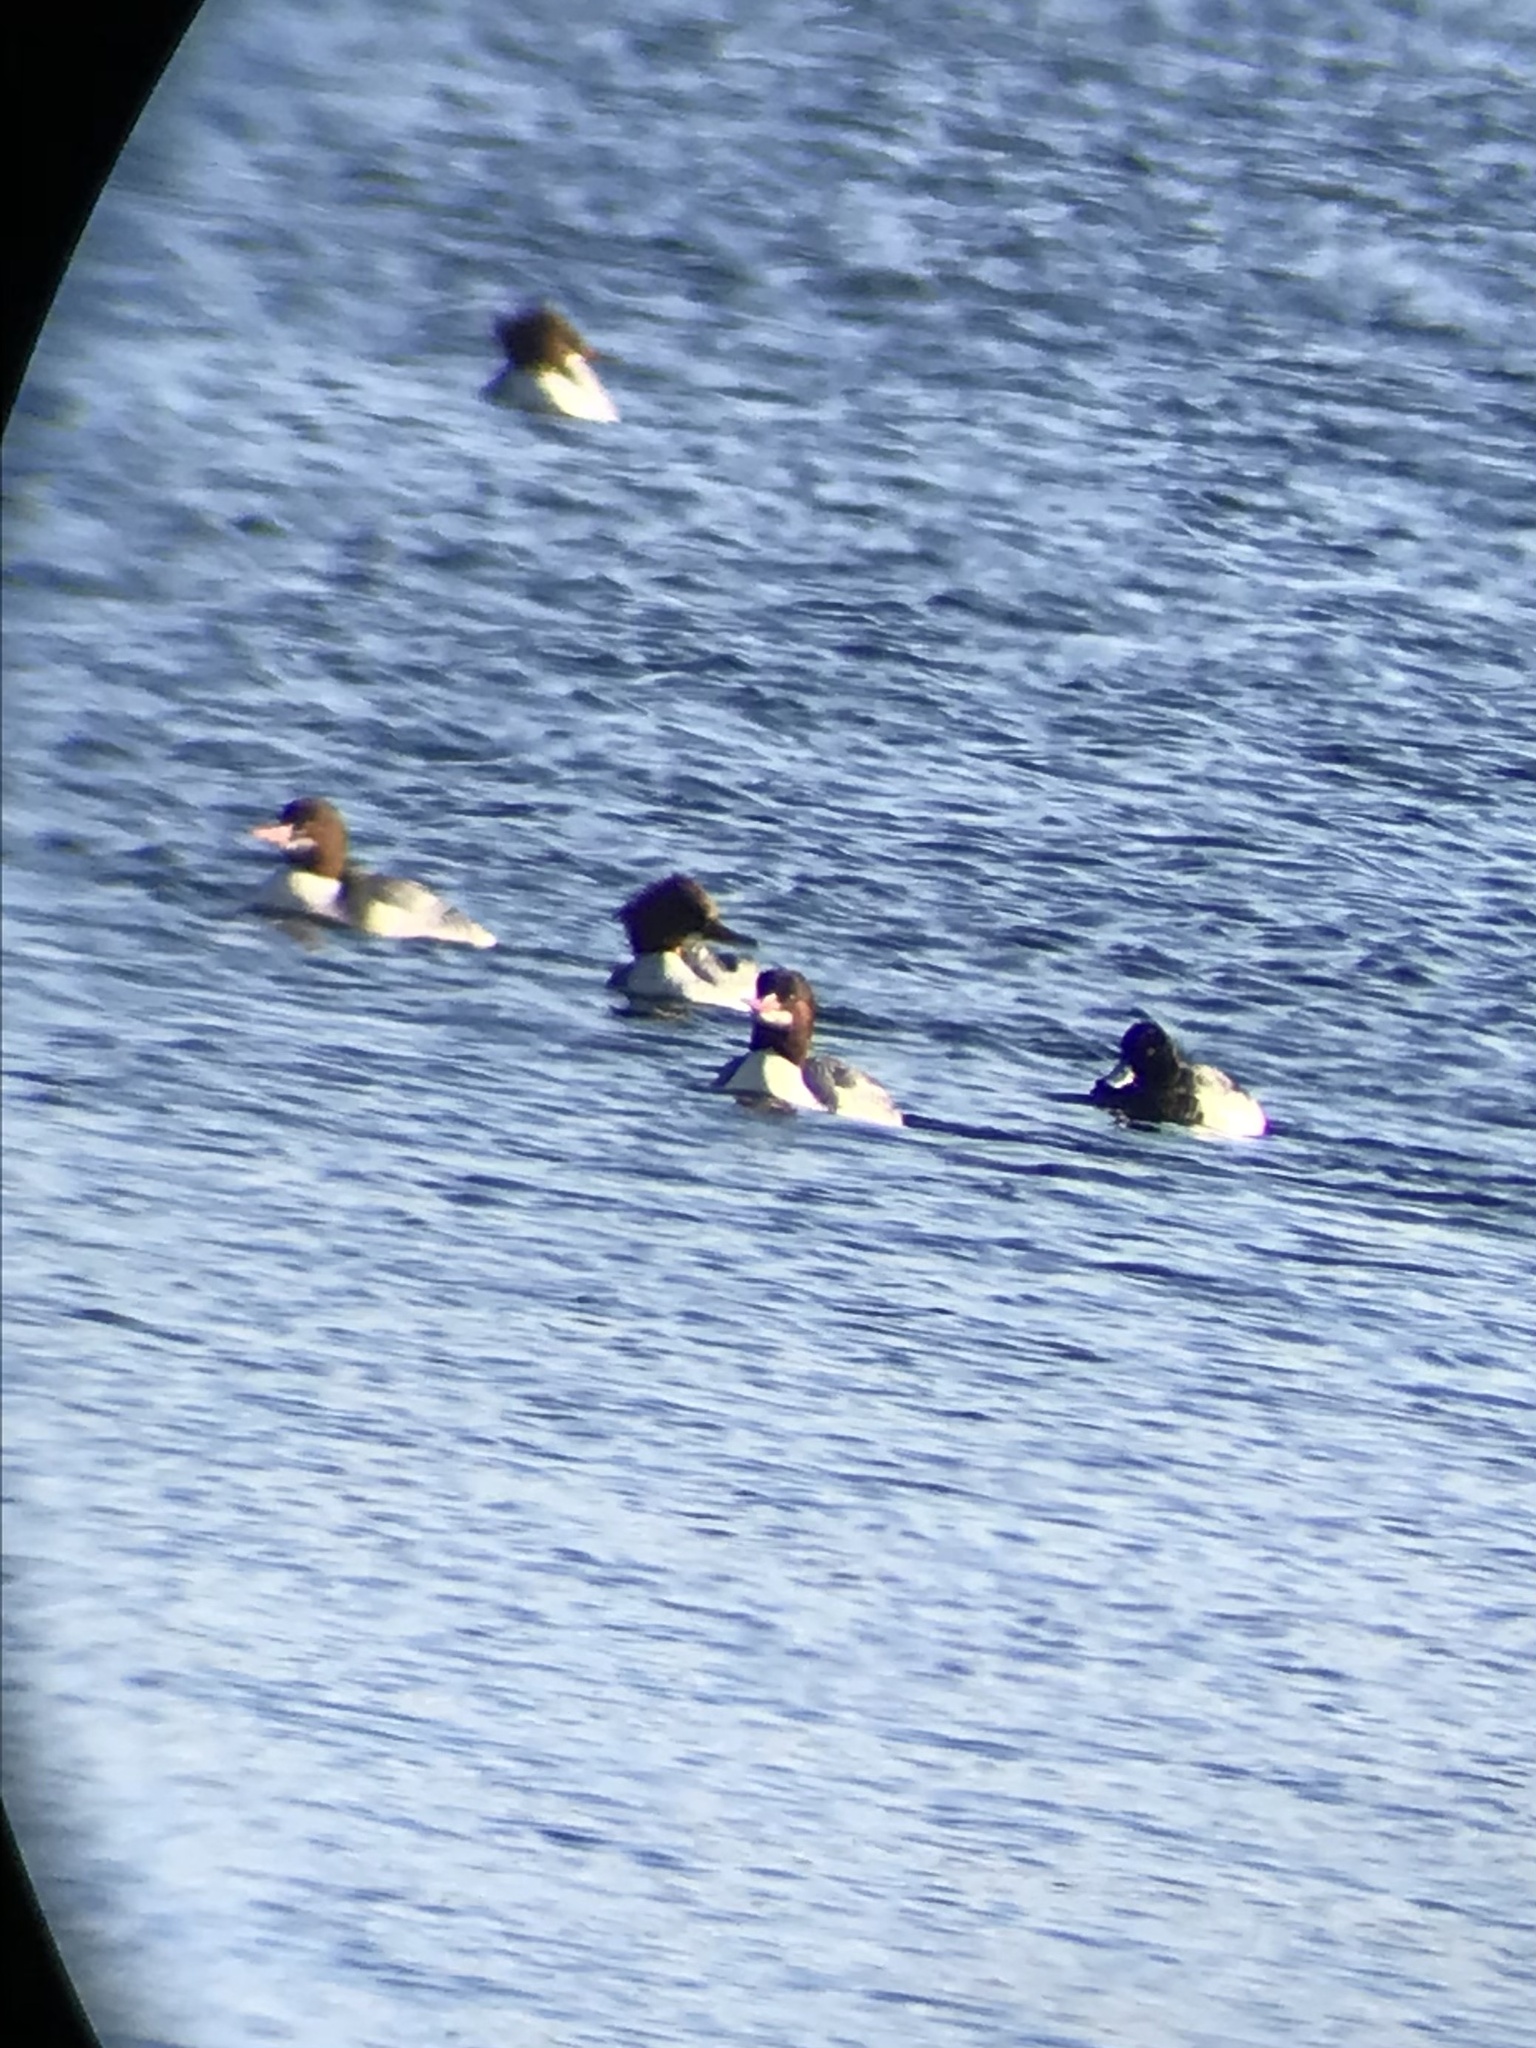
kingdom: Animalia
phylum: Chordata
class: Aves
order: Anseriformes
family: Anatidae
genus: Mergus
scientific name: Mergus merganser
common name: Common merganser
